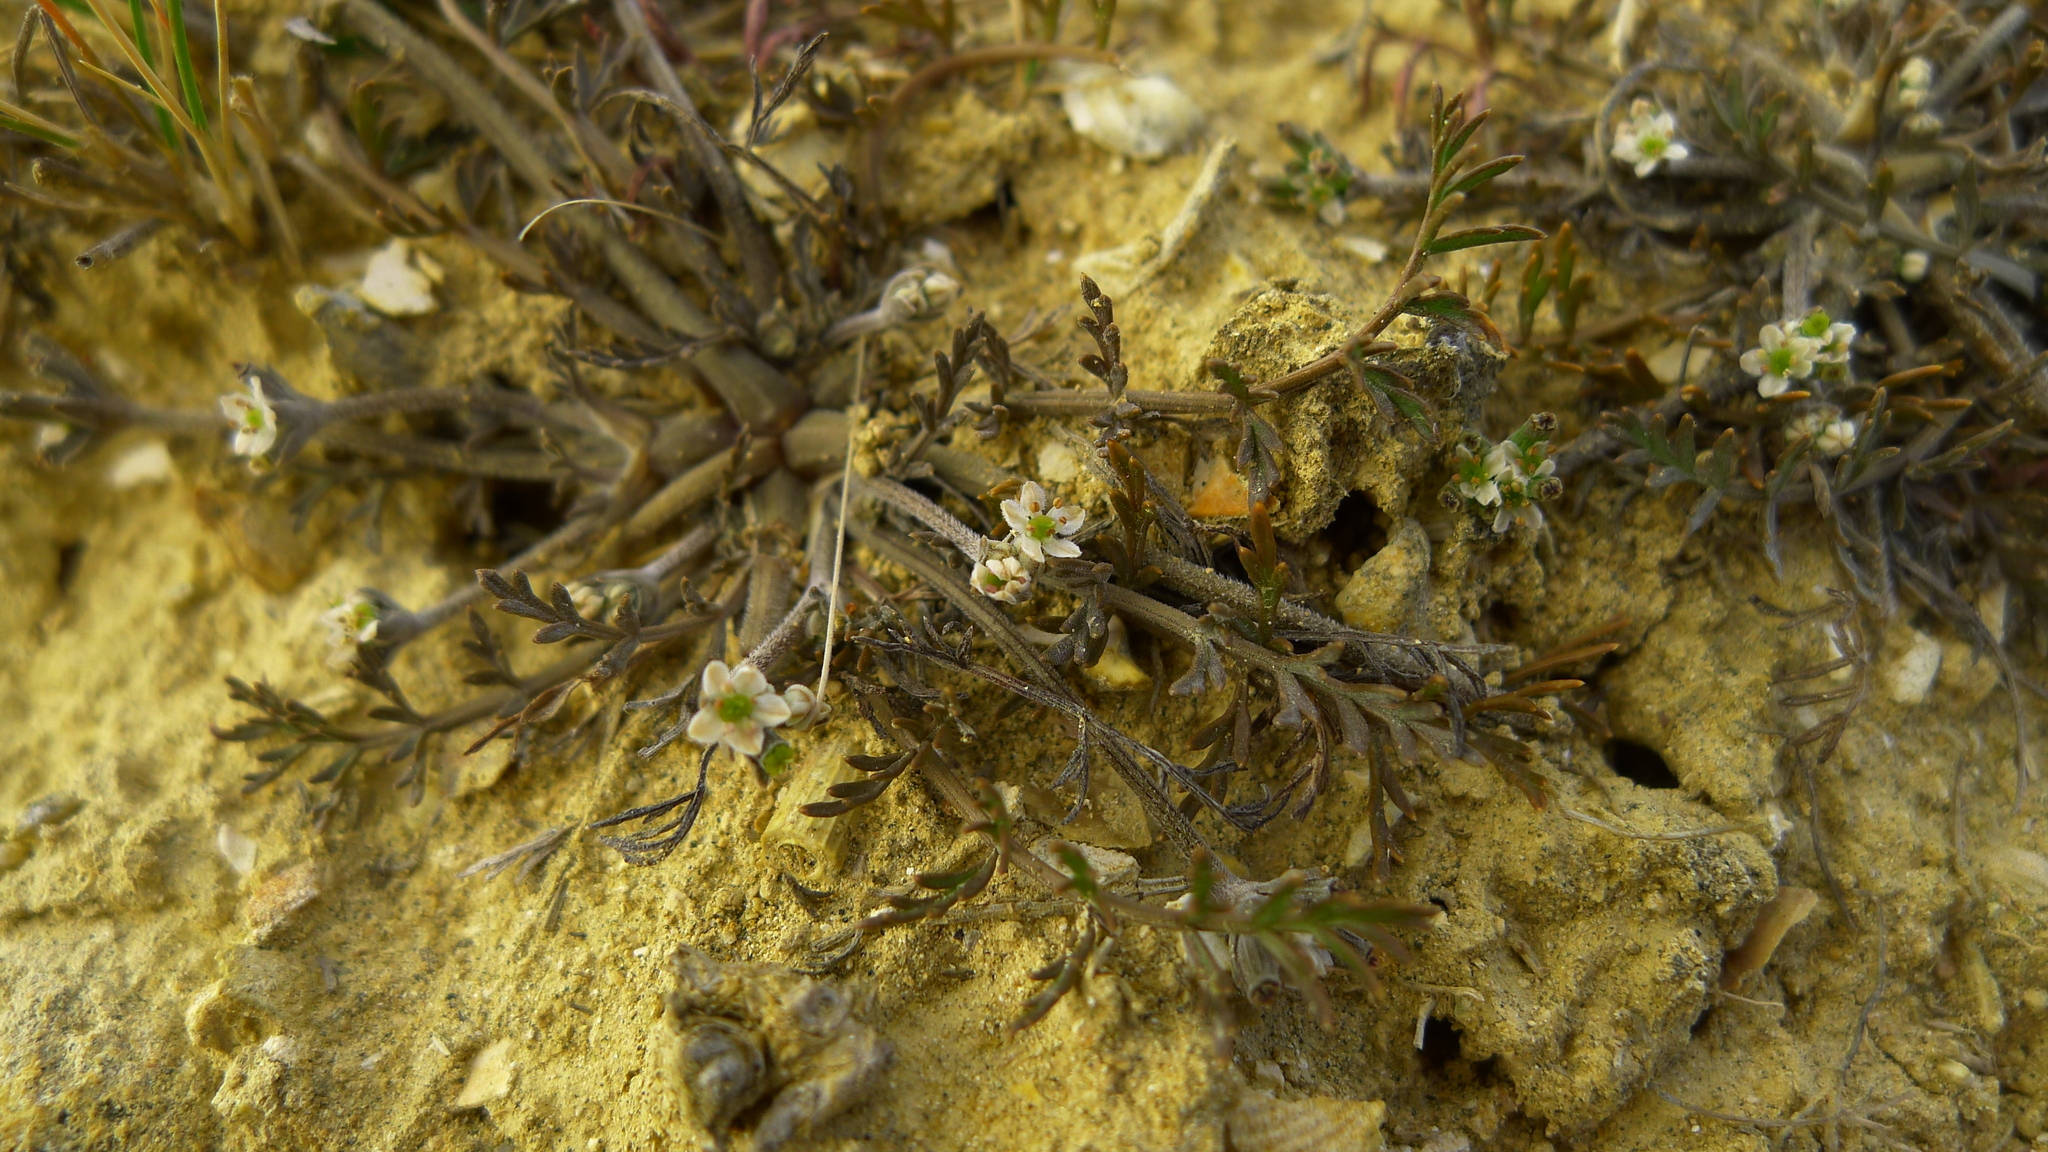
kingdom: Plantae
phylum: Tracheophyta
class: Magnoliopsida
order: Apiales
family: Apiaceae
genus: Chaerophyllum
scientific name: Chaerophyllum novae-zelandiae
